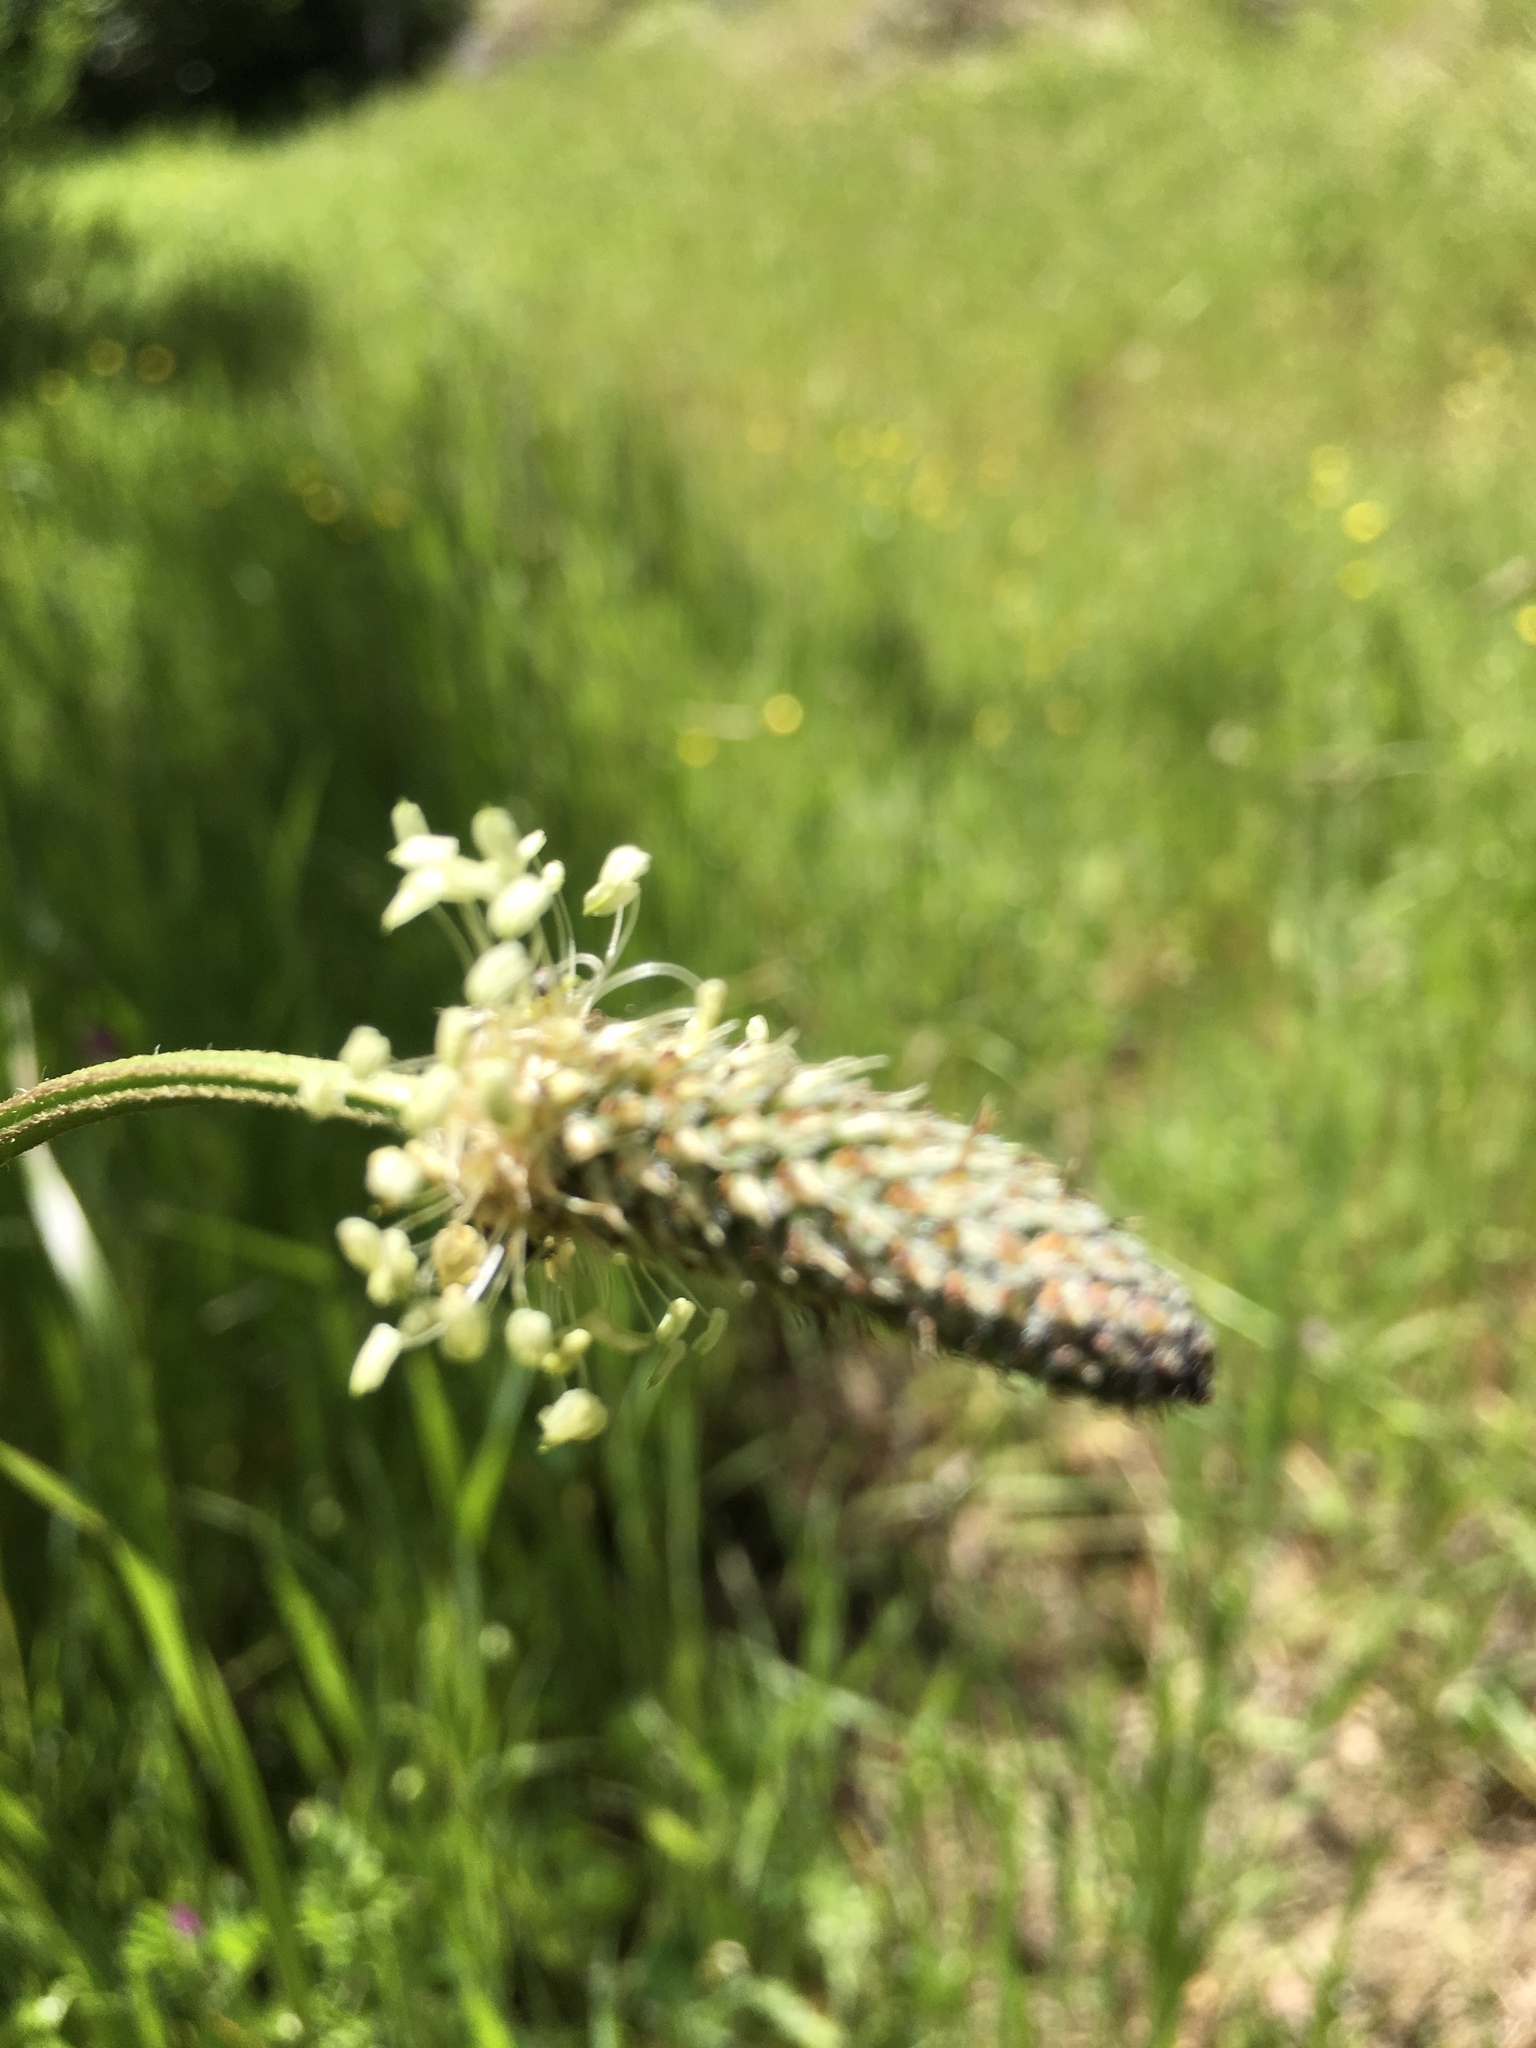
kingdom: Plantae
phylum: Tracheophyta
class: Magnoliopsida
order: Lamiales
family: Plantaginaceae
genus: Plantago
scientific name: Plantago lanceolata
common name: Ribwort plantain
